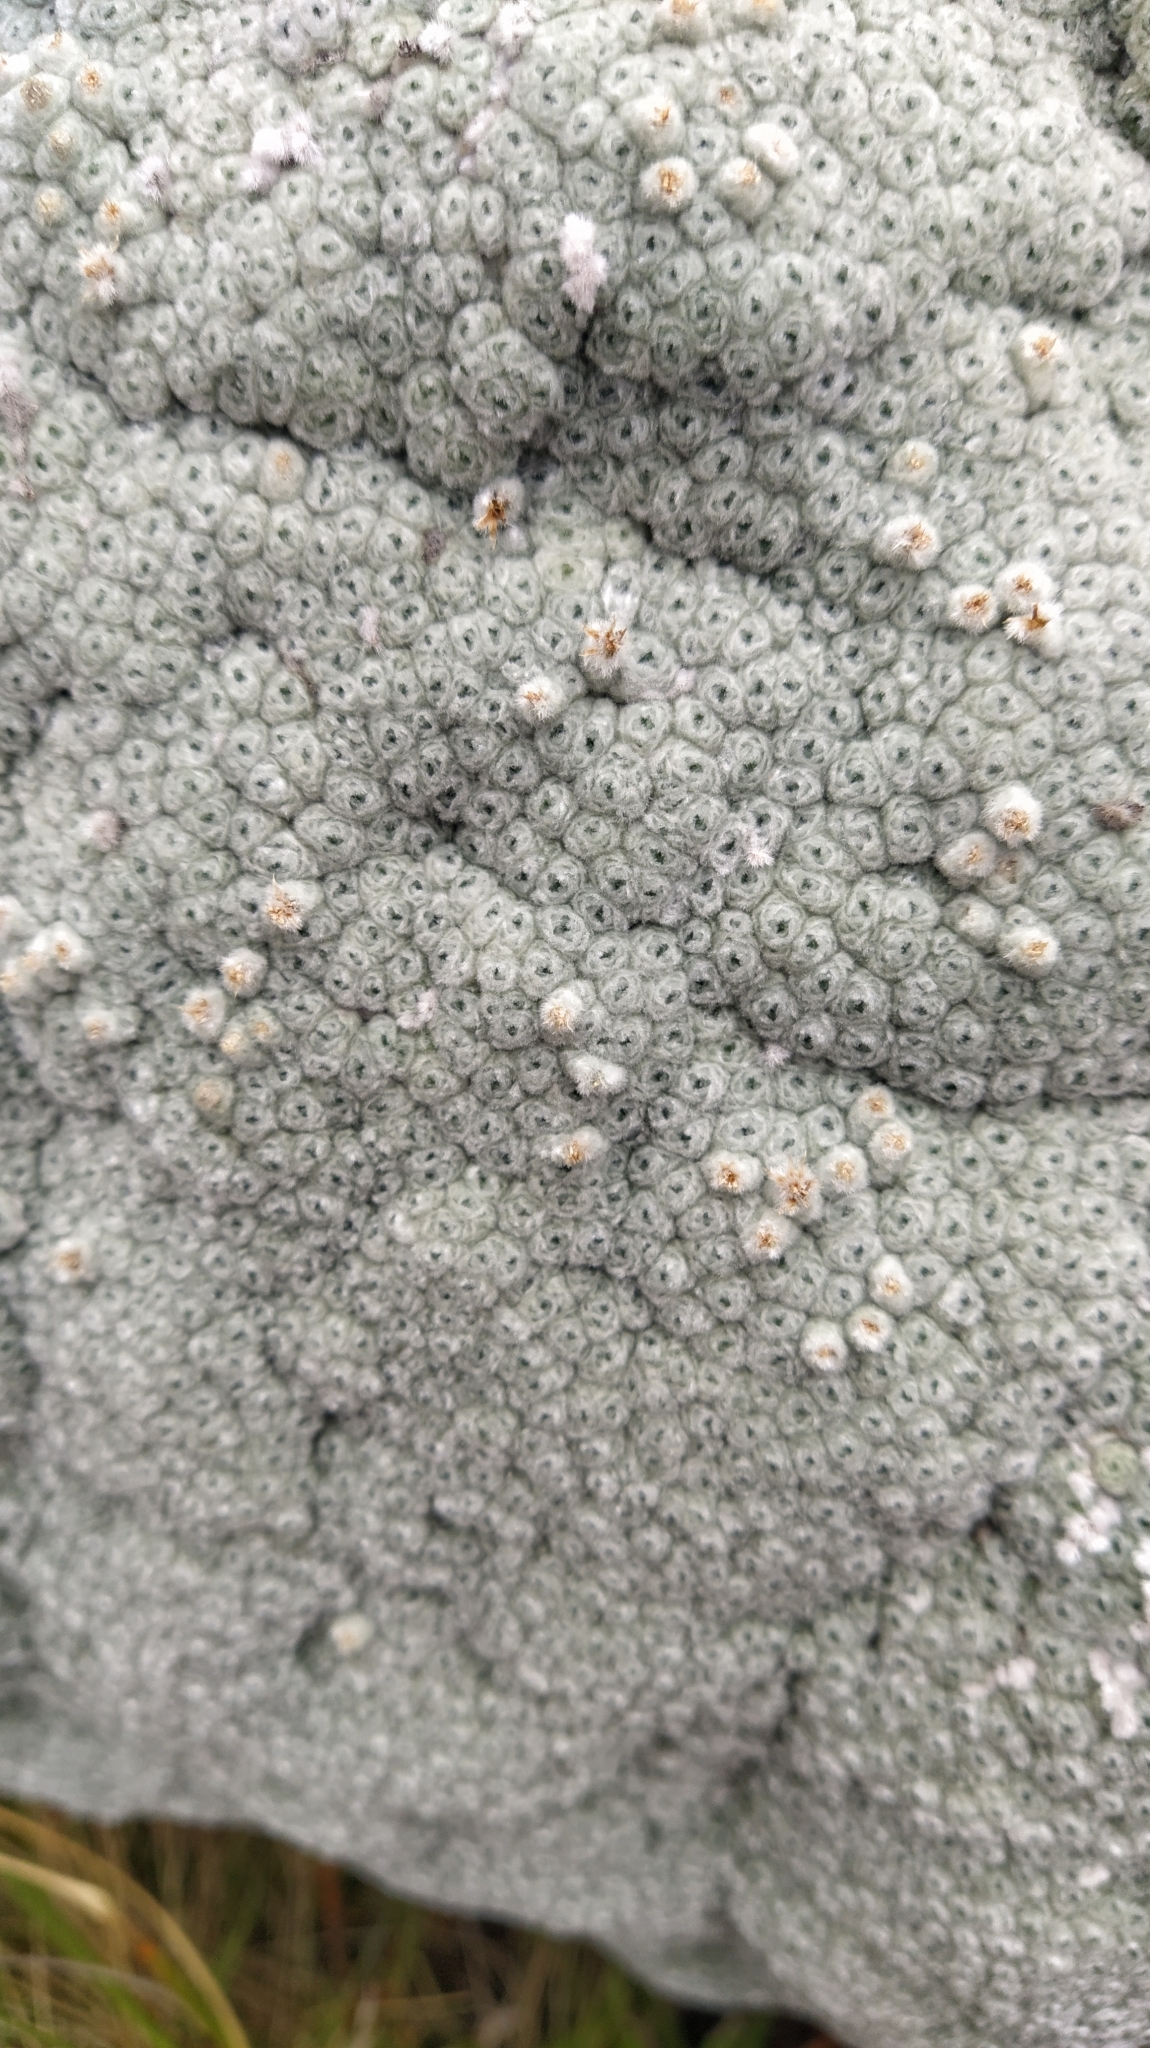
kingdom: Plantae
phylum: Tracheophyta
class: Magnoliopsida
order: Asterales
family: Asteraceae
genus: Raoulia
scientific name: Raoulia eximia
